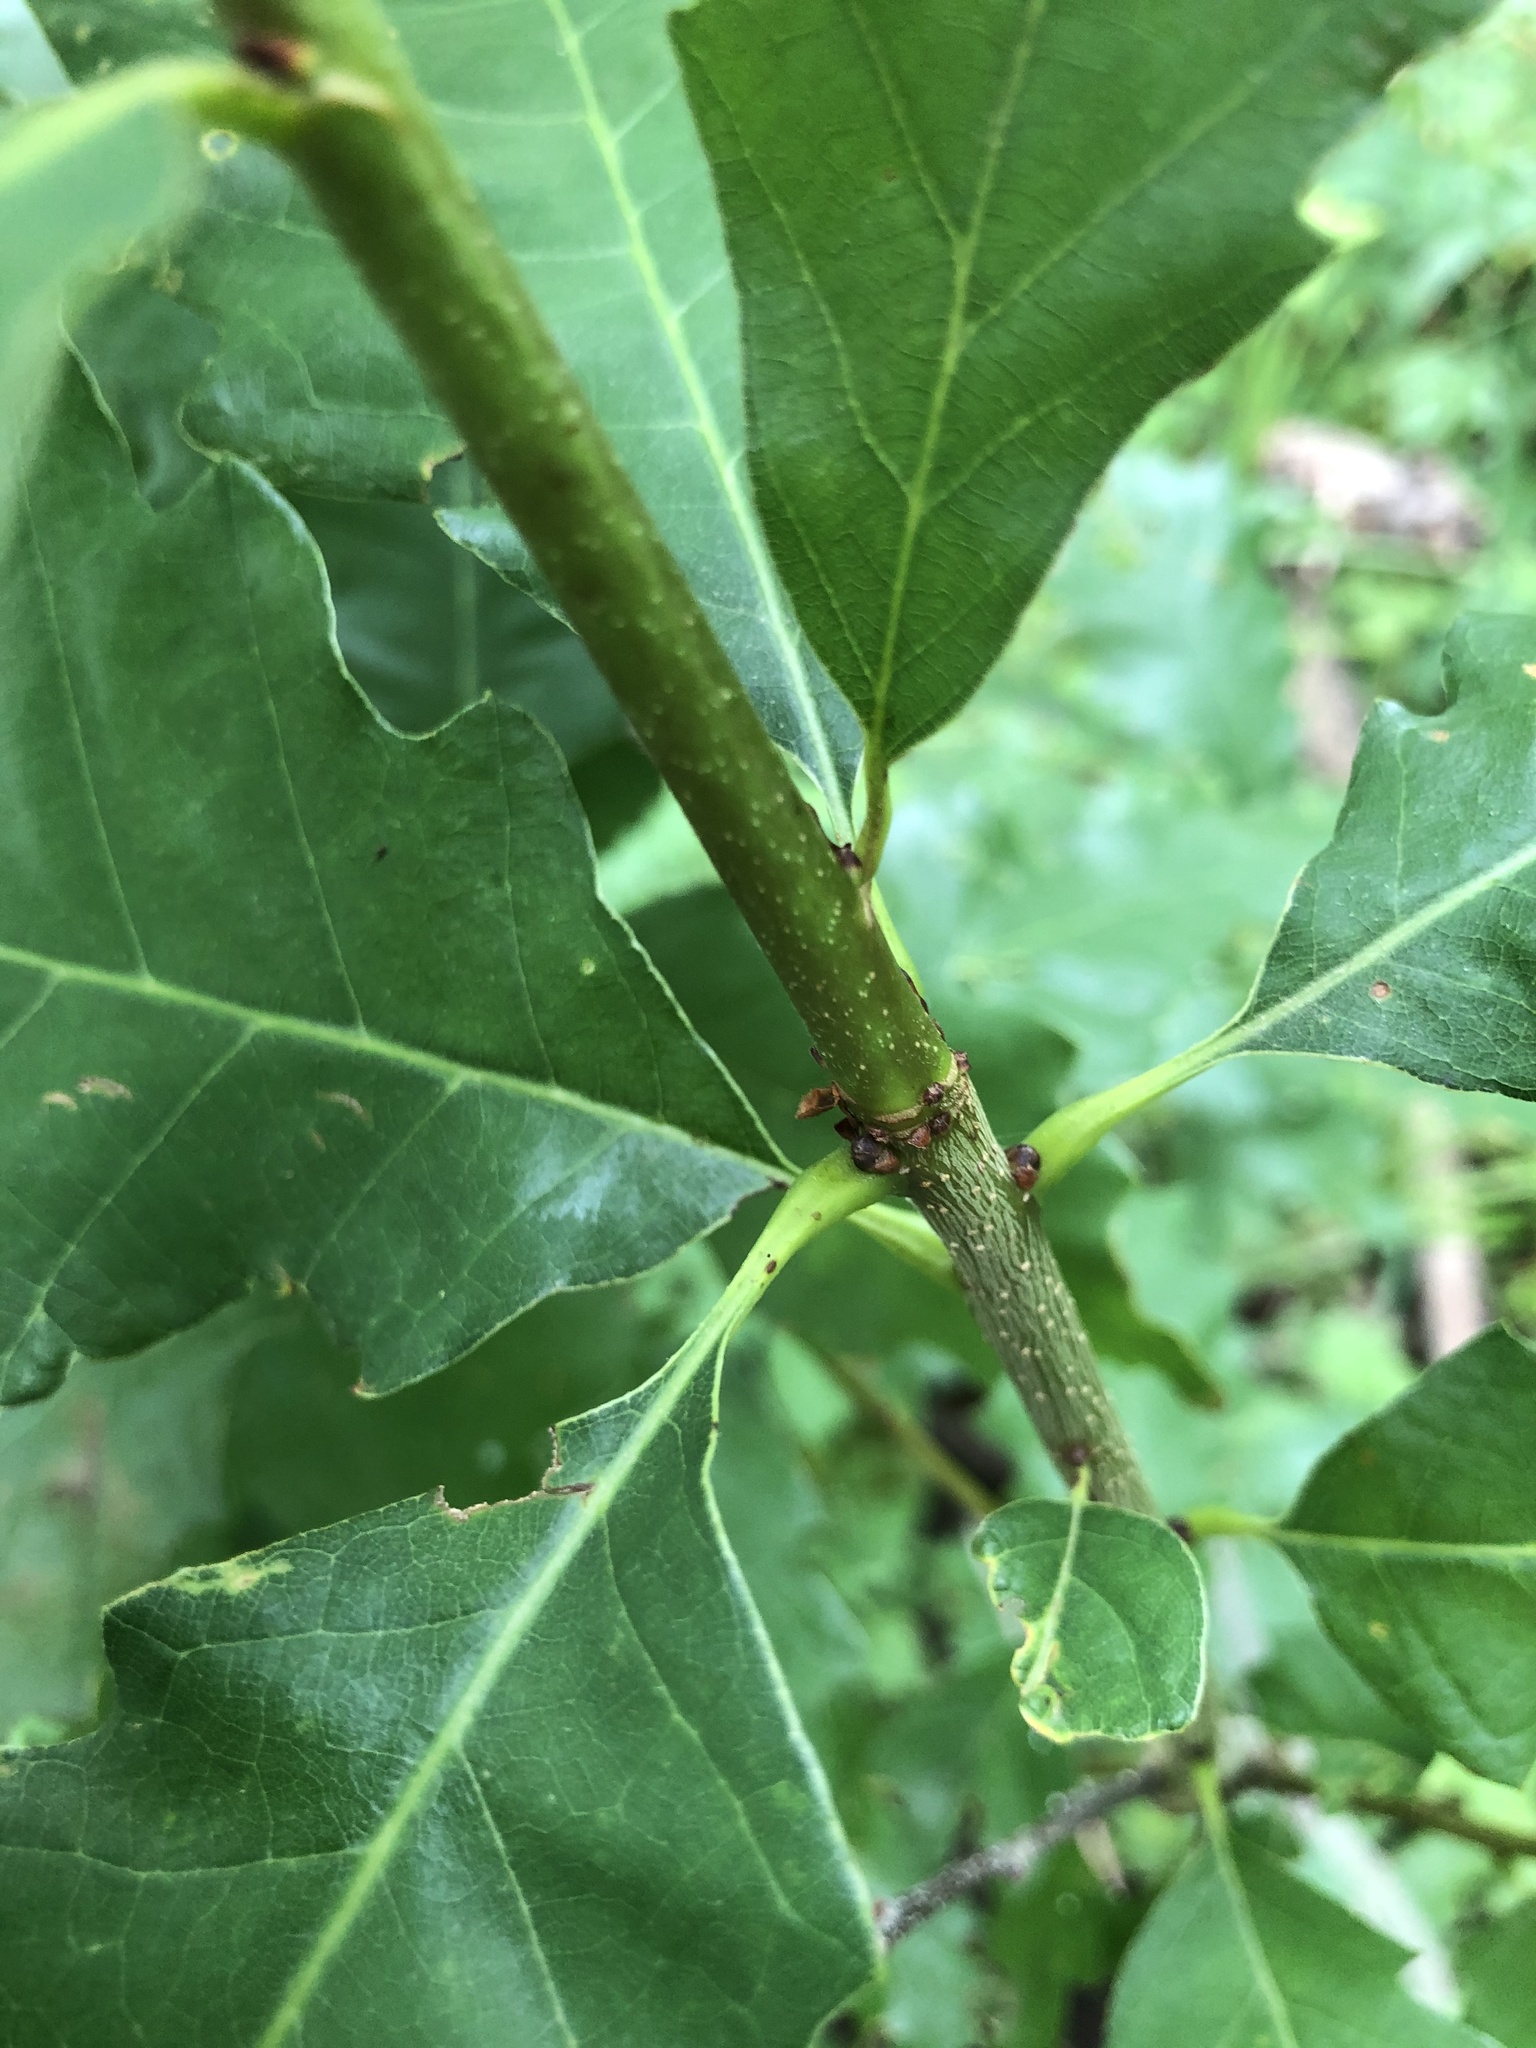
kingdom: Plantae
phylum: Tracheophyta
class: Magnoliopsida
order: Fagales
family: Fagaceae
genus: Quercus
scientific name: Quercus muehlenbergii
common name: Chinkapin oak
